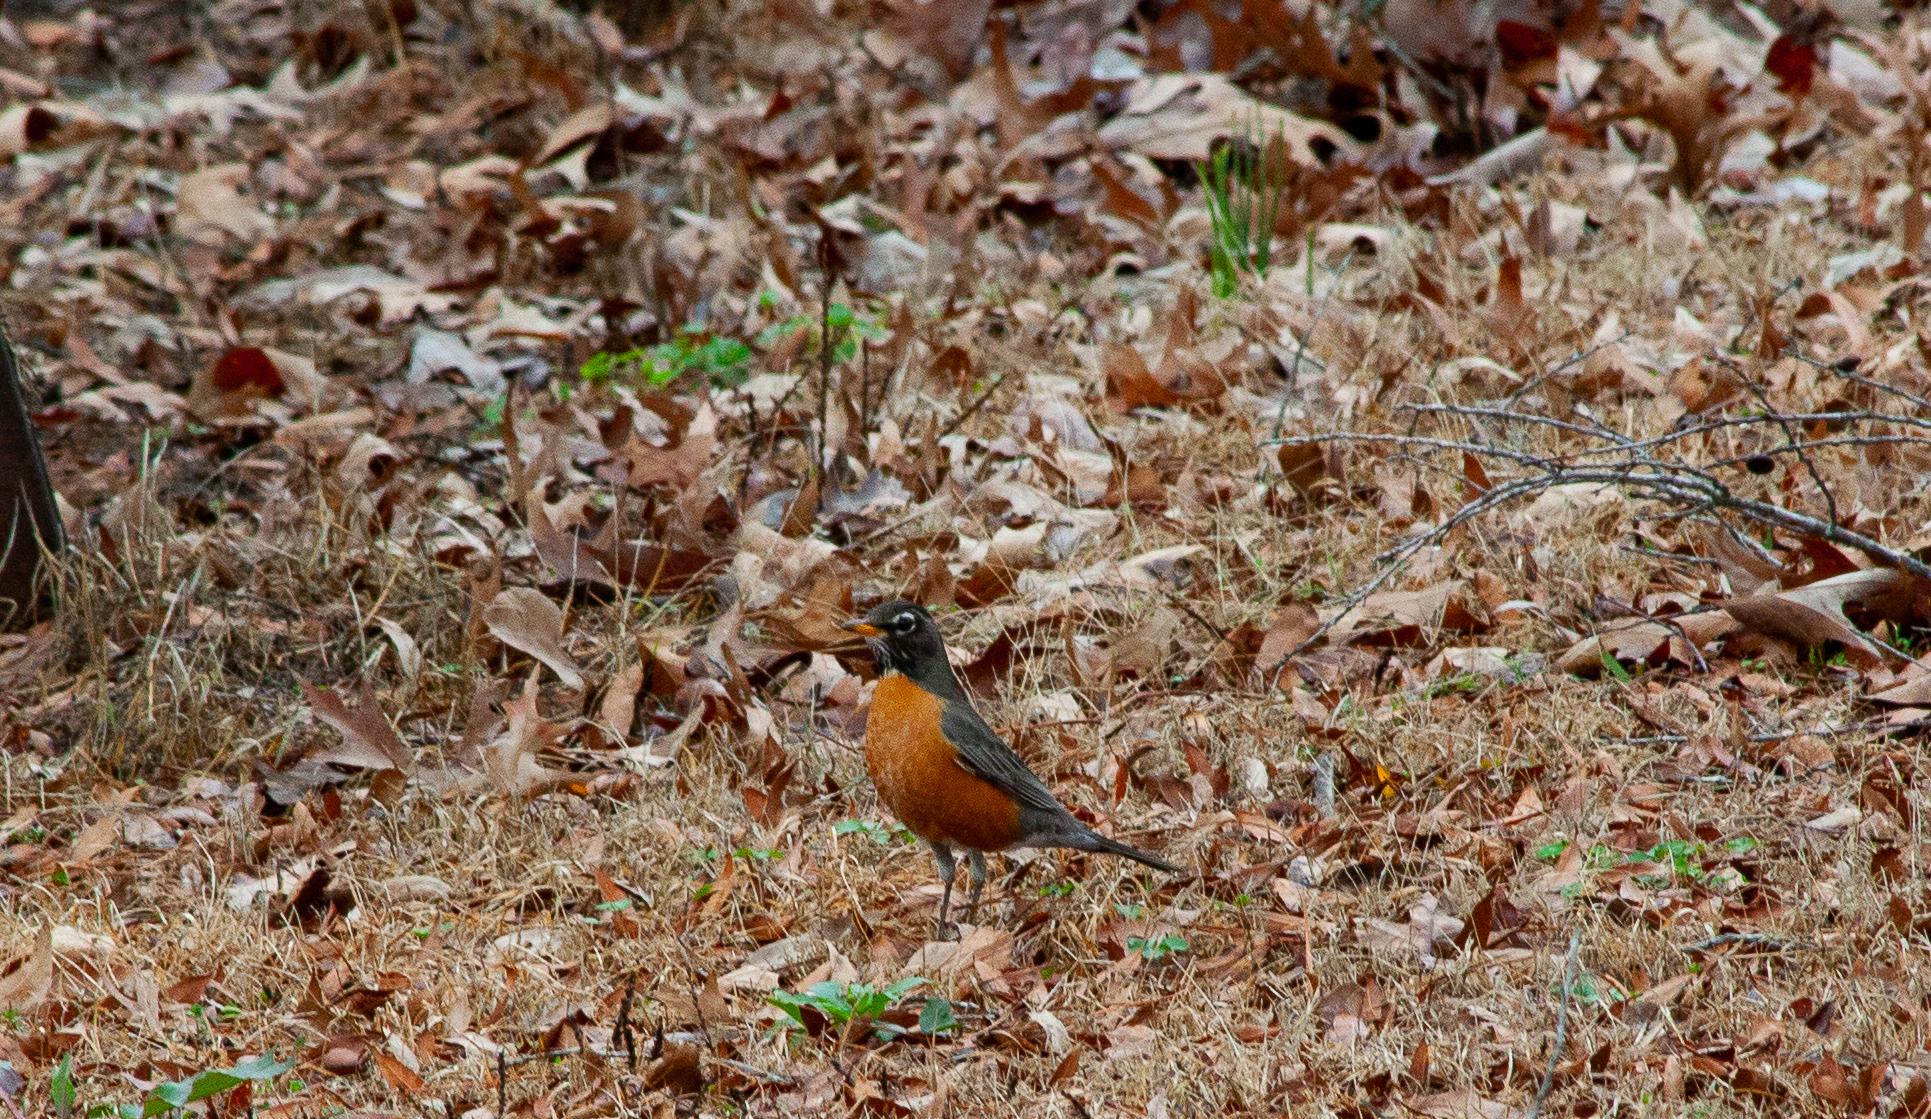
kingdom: Animalia
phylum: Chordata
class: Aves
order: Passeriformes
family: Turdidae
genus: Turdus
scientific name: Turdus migratorius
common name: American robin
